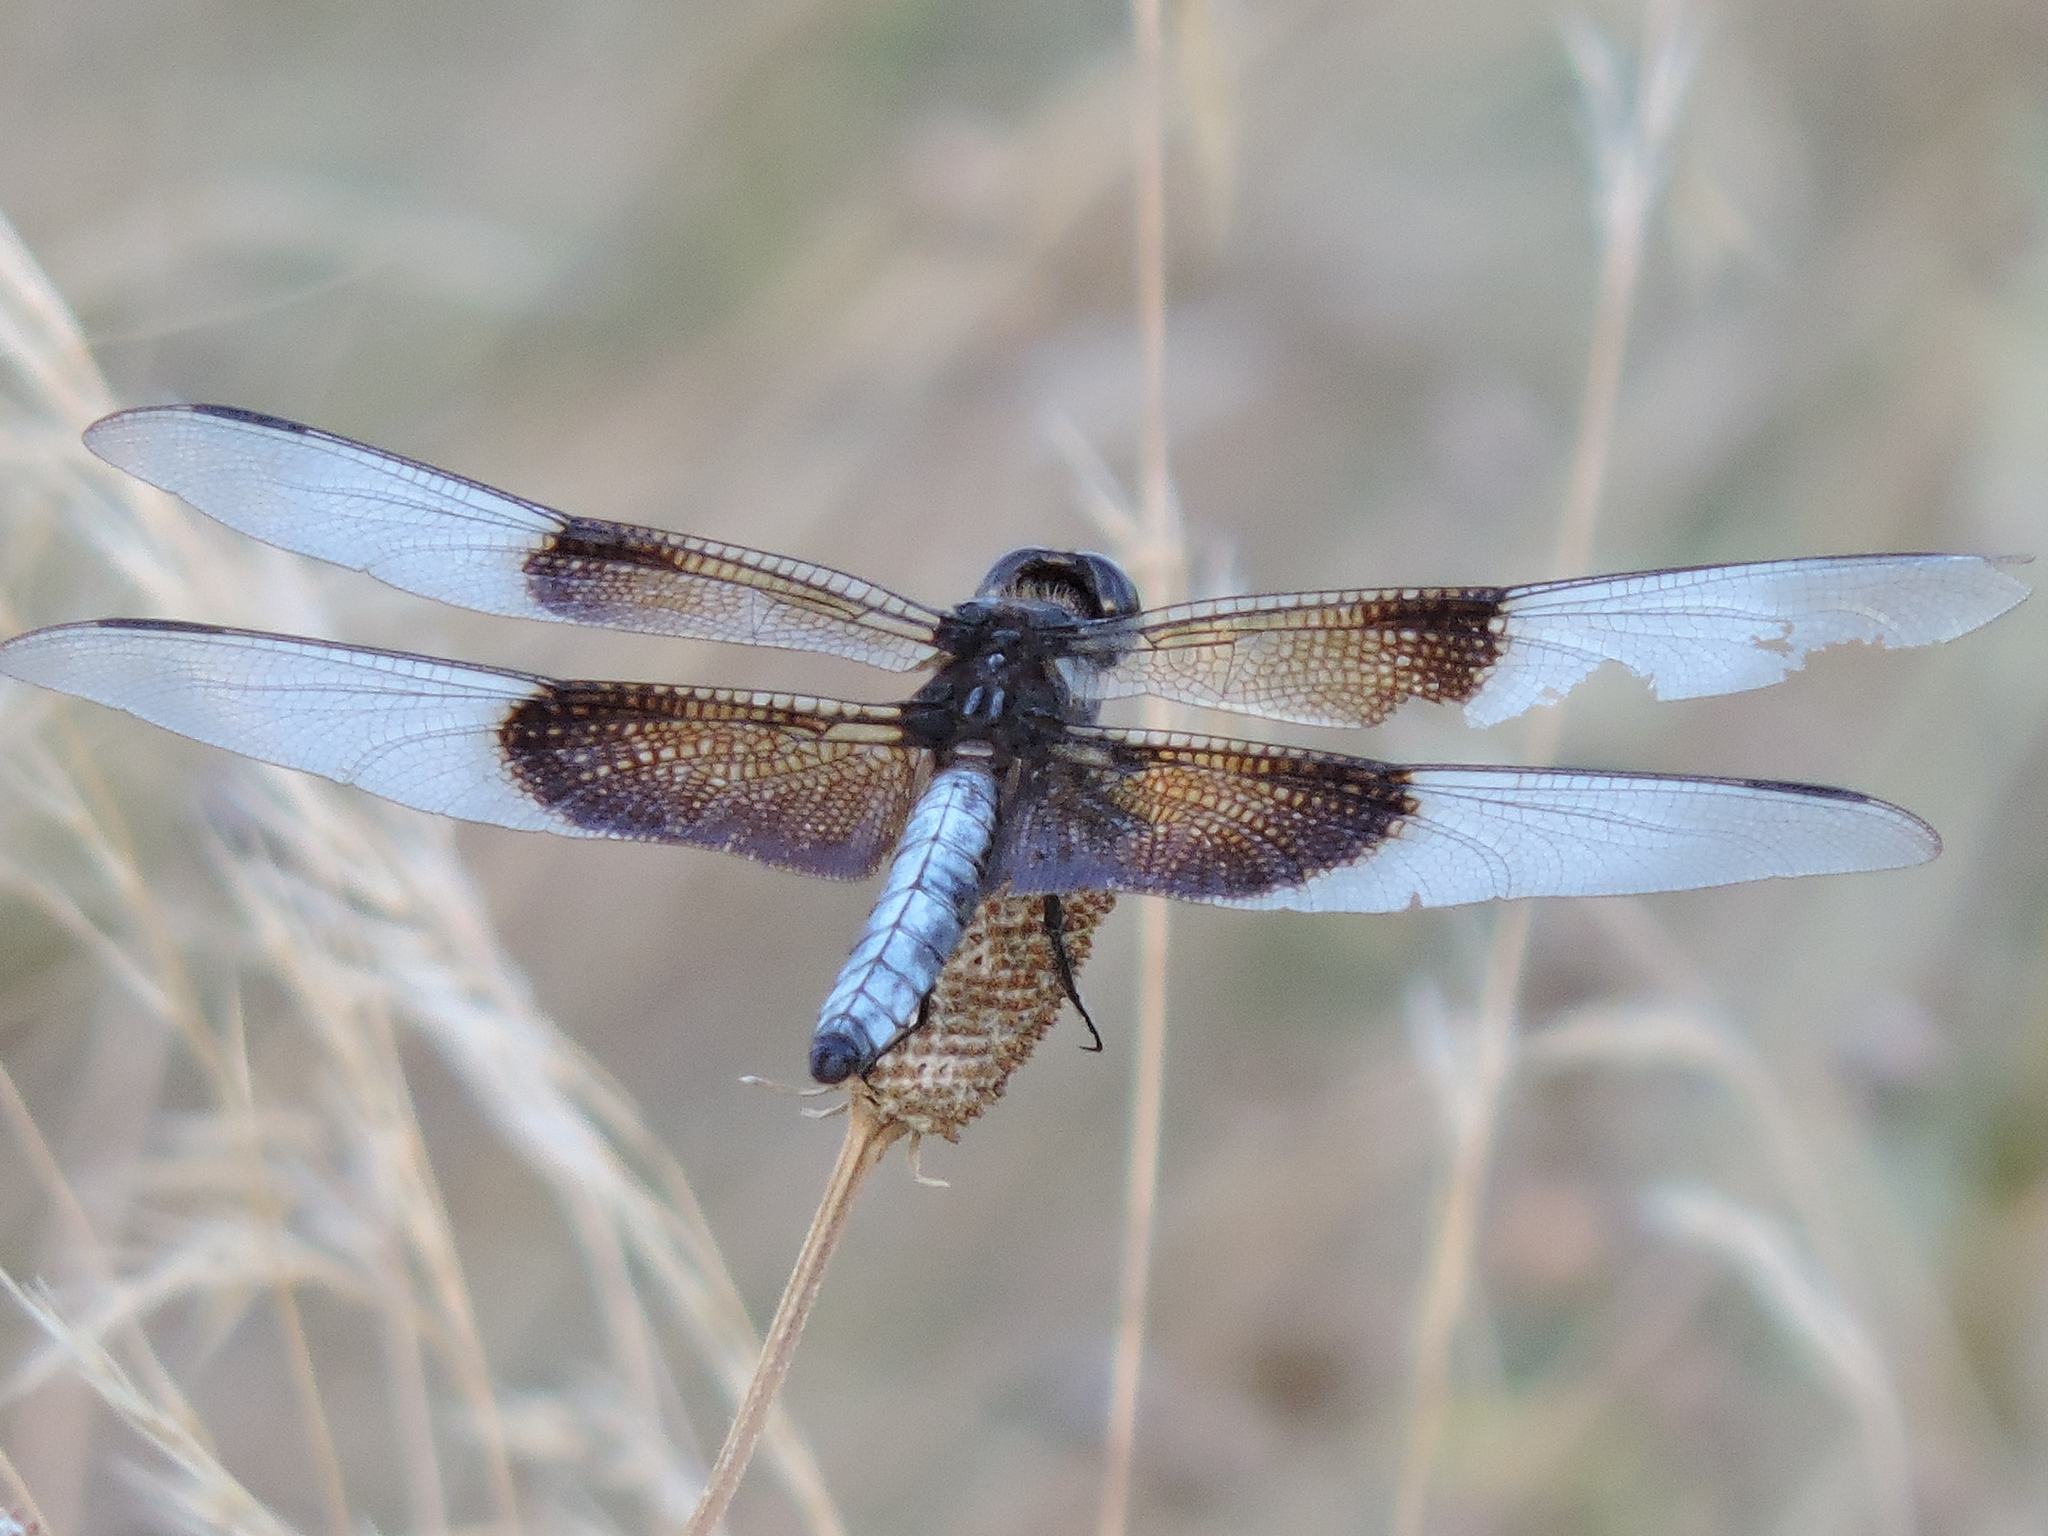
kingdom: Animalia
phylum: Arthropoda
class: Insecta
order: Odonata
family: Libellulidae
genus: Libellula
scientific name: Libellula luctuosa
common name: Widow skimmer
